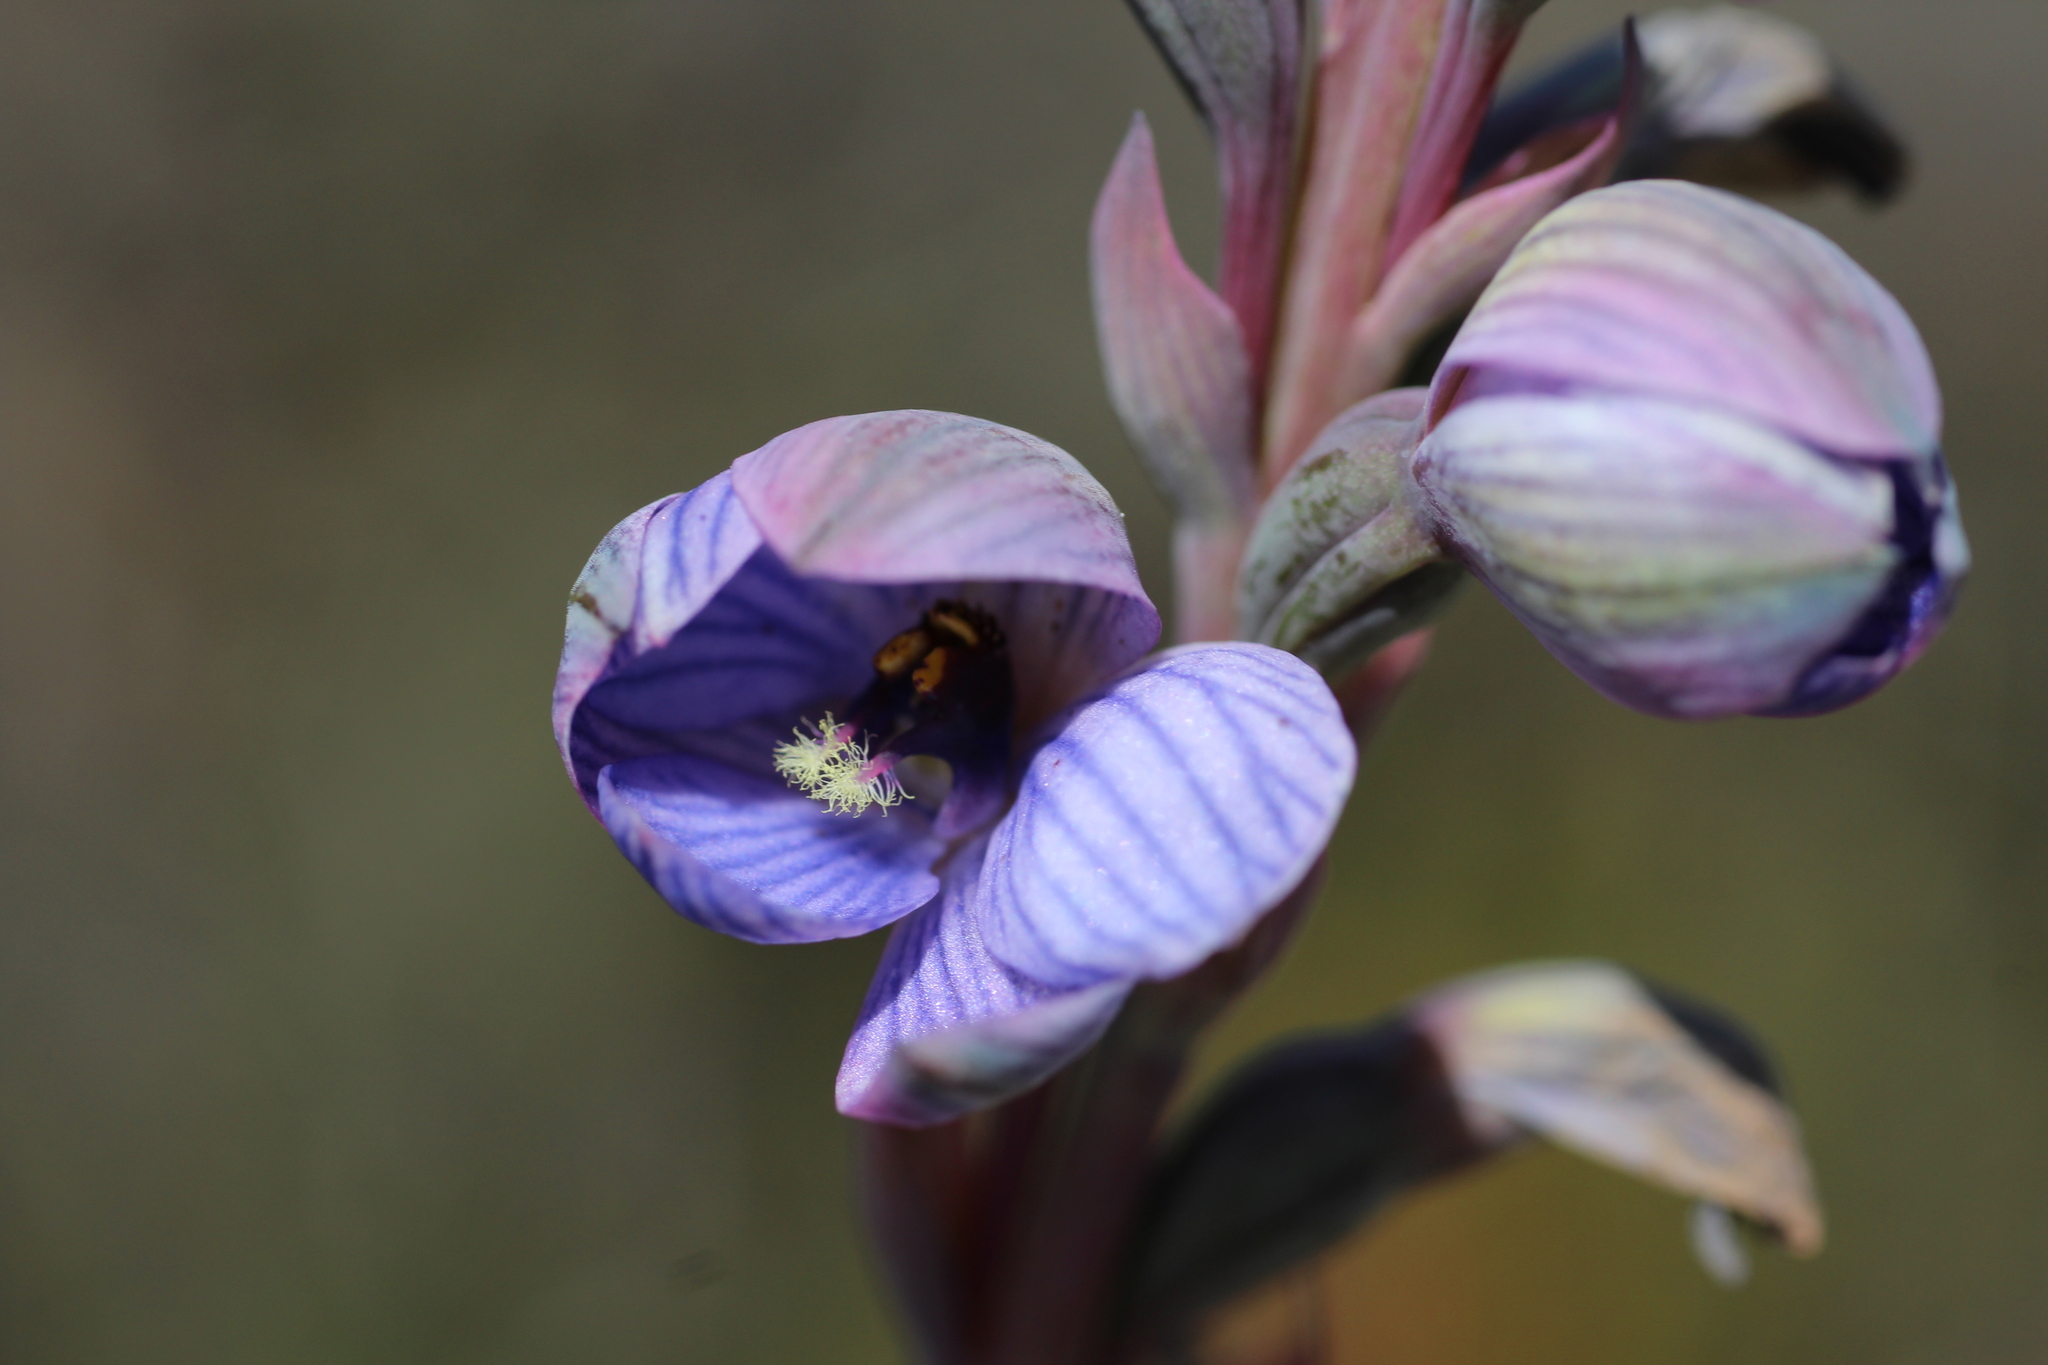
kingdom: Plantae
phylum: Tracheophyta
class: Liliopsida
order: Asparagales
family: Orchidaceae
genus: Thelymitra
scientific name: Thelymitra campanulata
